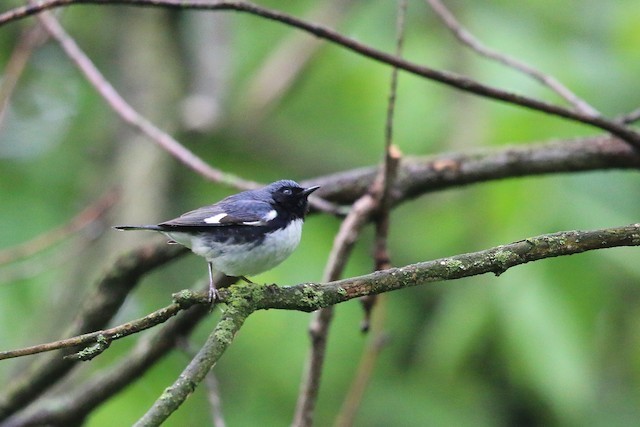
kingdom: Animalia
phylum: Chordata
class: Aves
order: Passeriformes
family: Parulidae
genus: Setophaga
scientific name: Setophaga caerulescens
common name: Black-throated blue warbler
